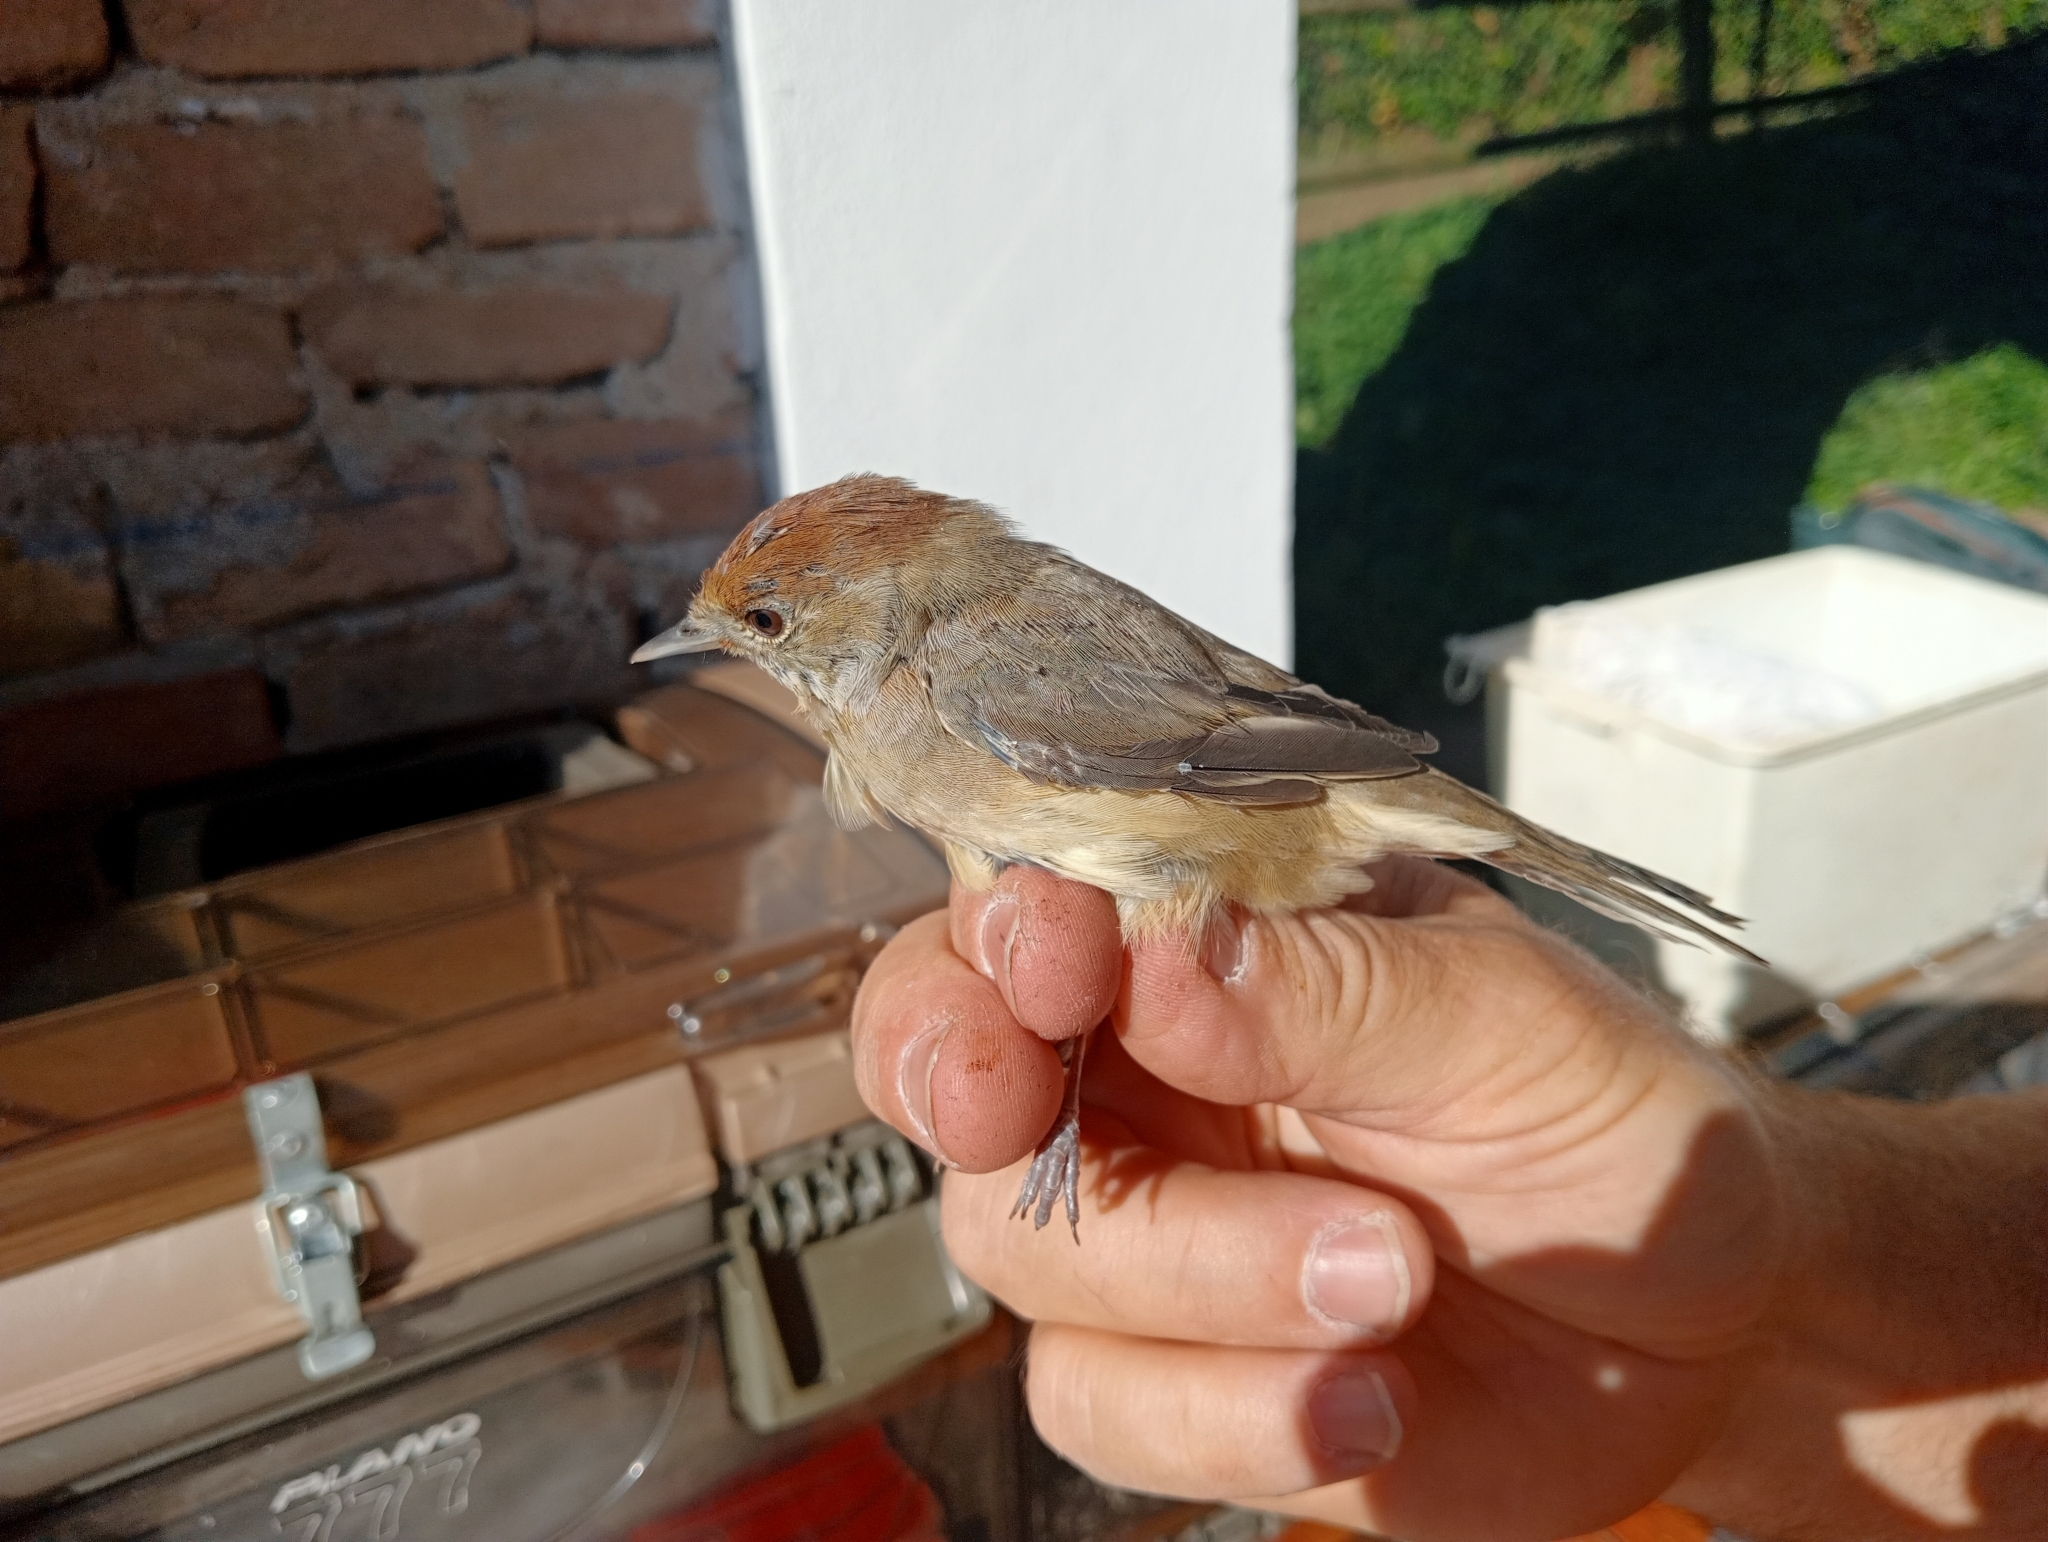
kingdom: Animalia
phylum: Chordata
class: Aves
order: Passeriformes
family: Sylviidae
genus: Sylvia
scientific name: Sylvia atricapilla
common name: Eurasian blackcap
